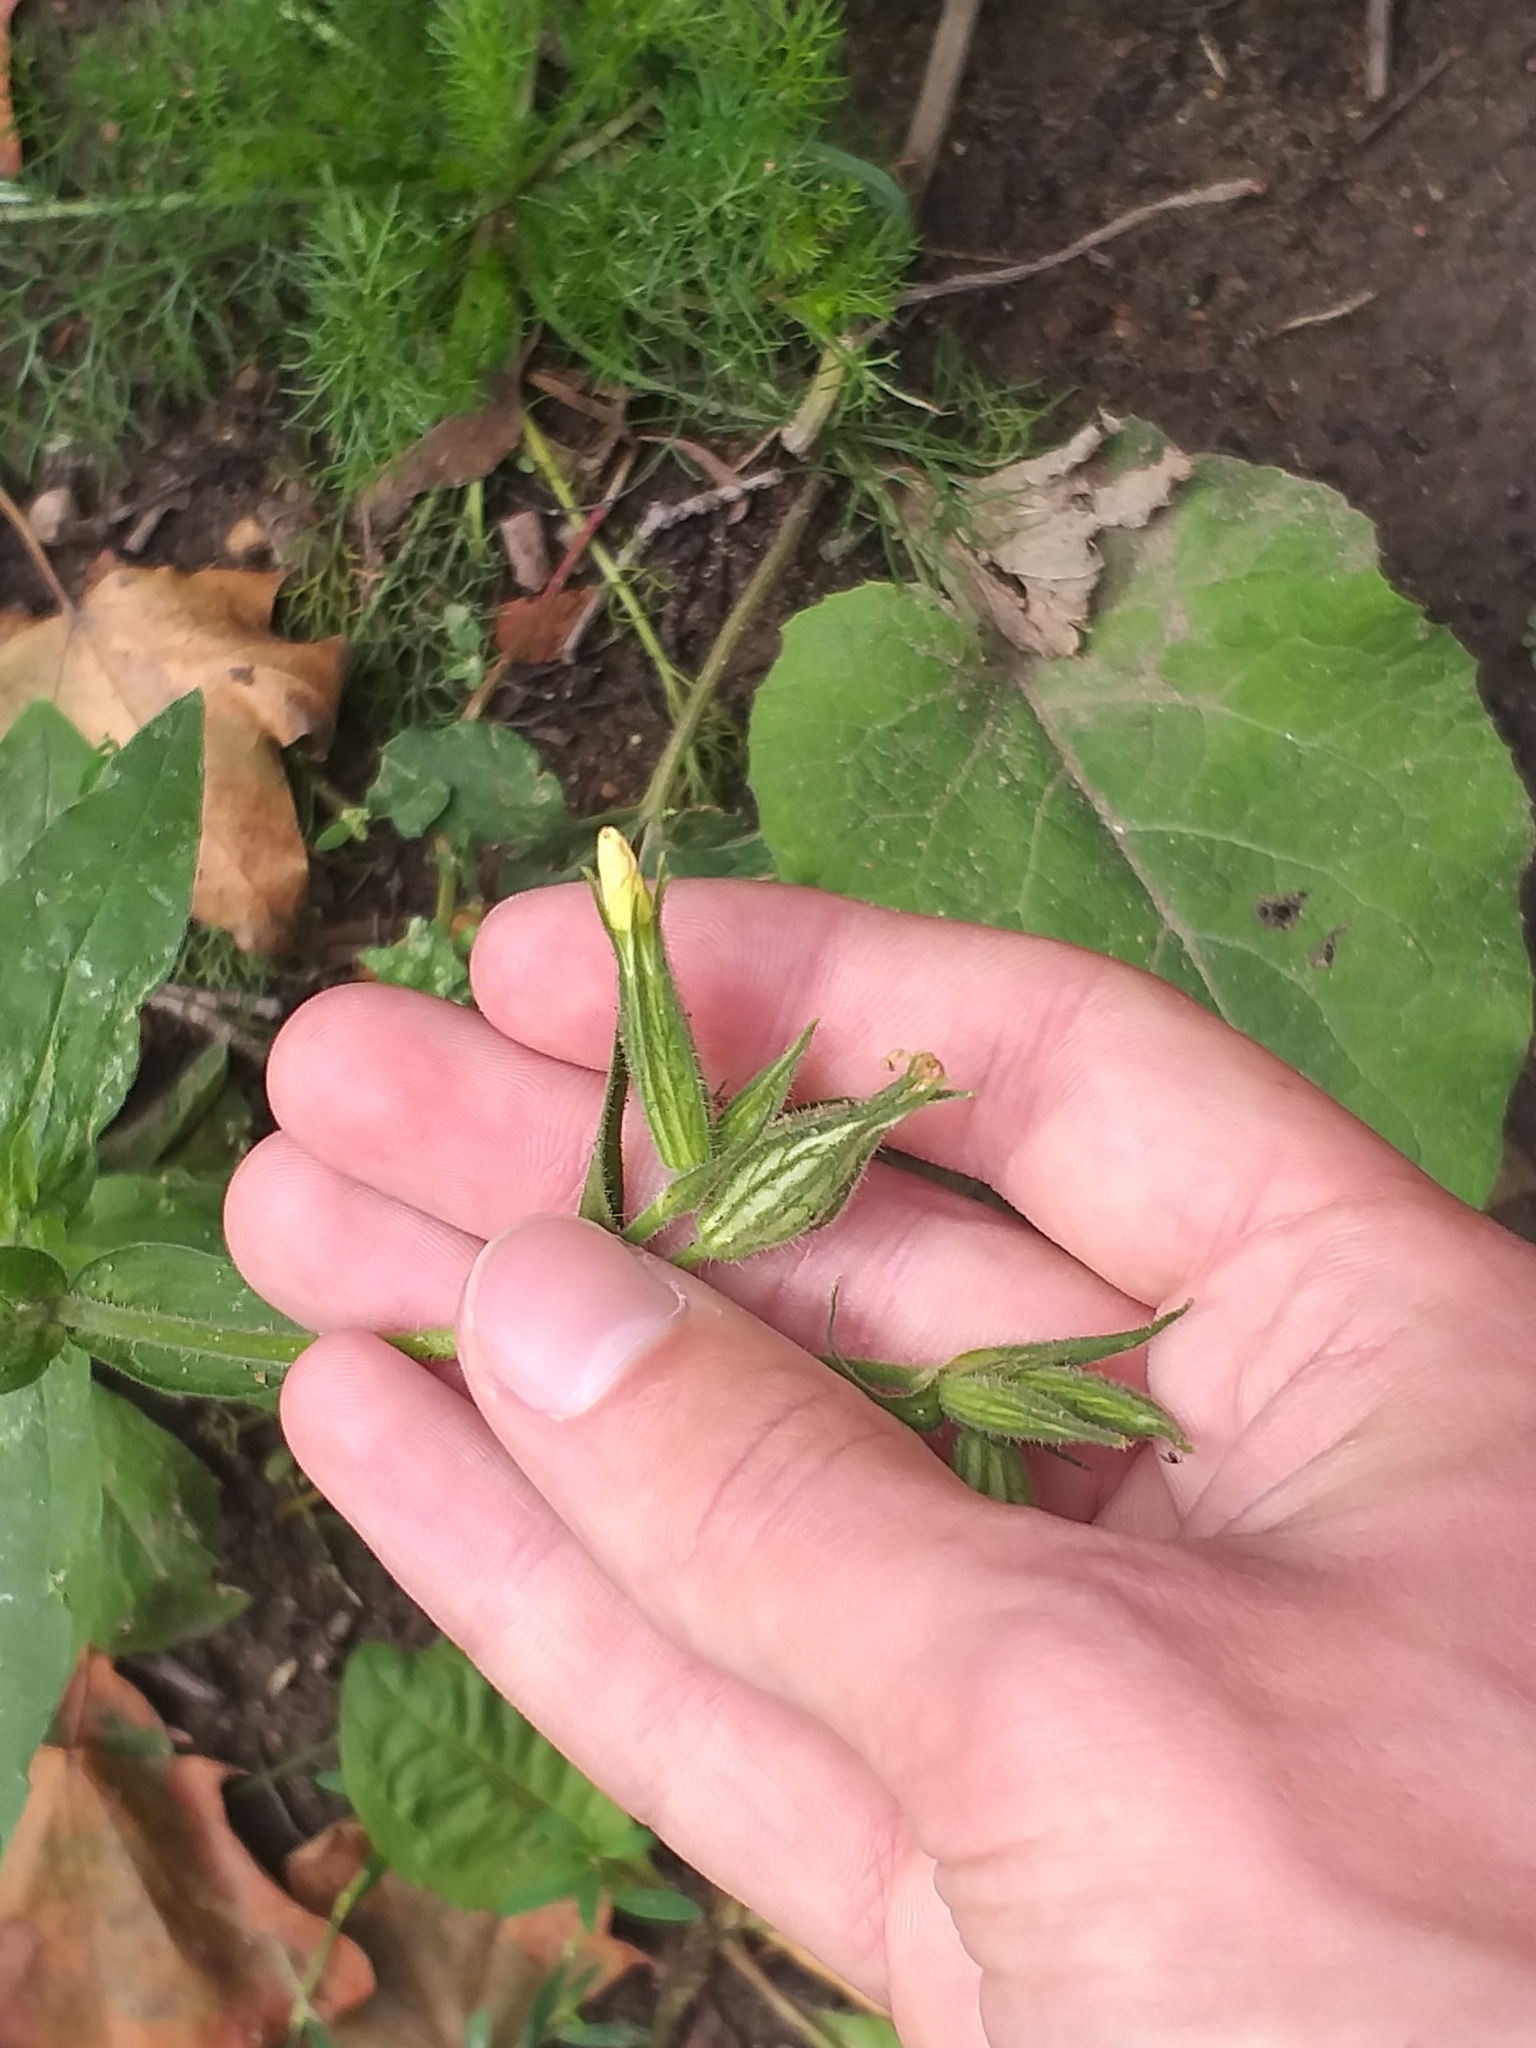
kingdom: Plantae
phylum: Tracheophyta
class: Magnoliopsida
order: Caryophyllales
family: Caryophyllaceae
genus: Silene
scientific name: Silene noctiflora
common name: Night-flowering catchfly
